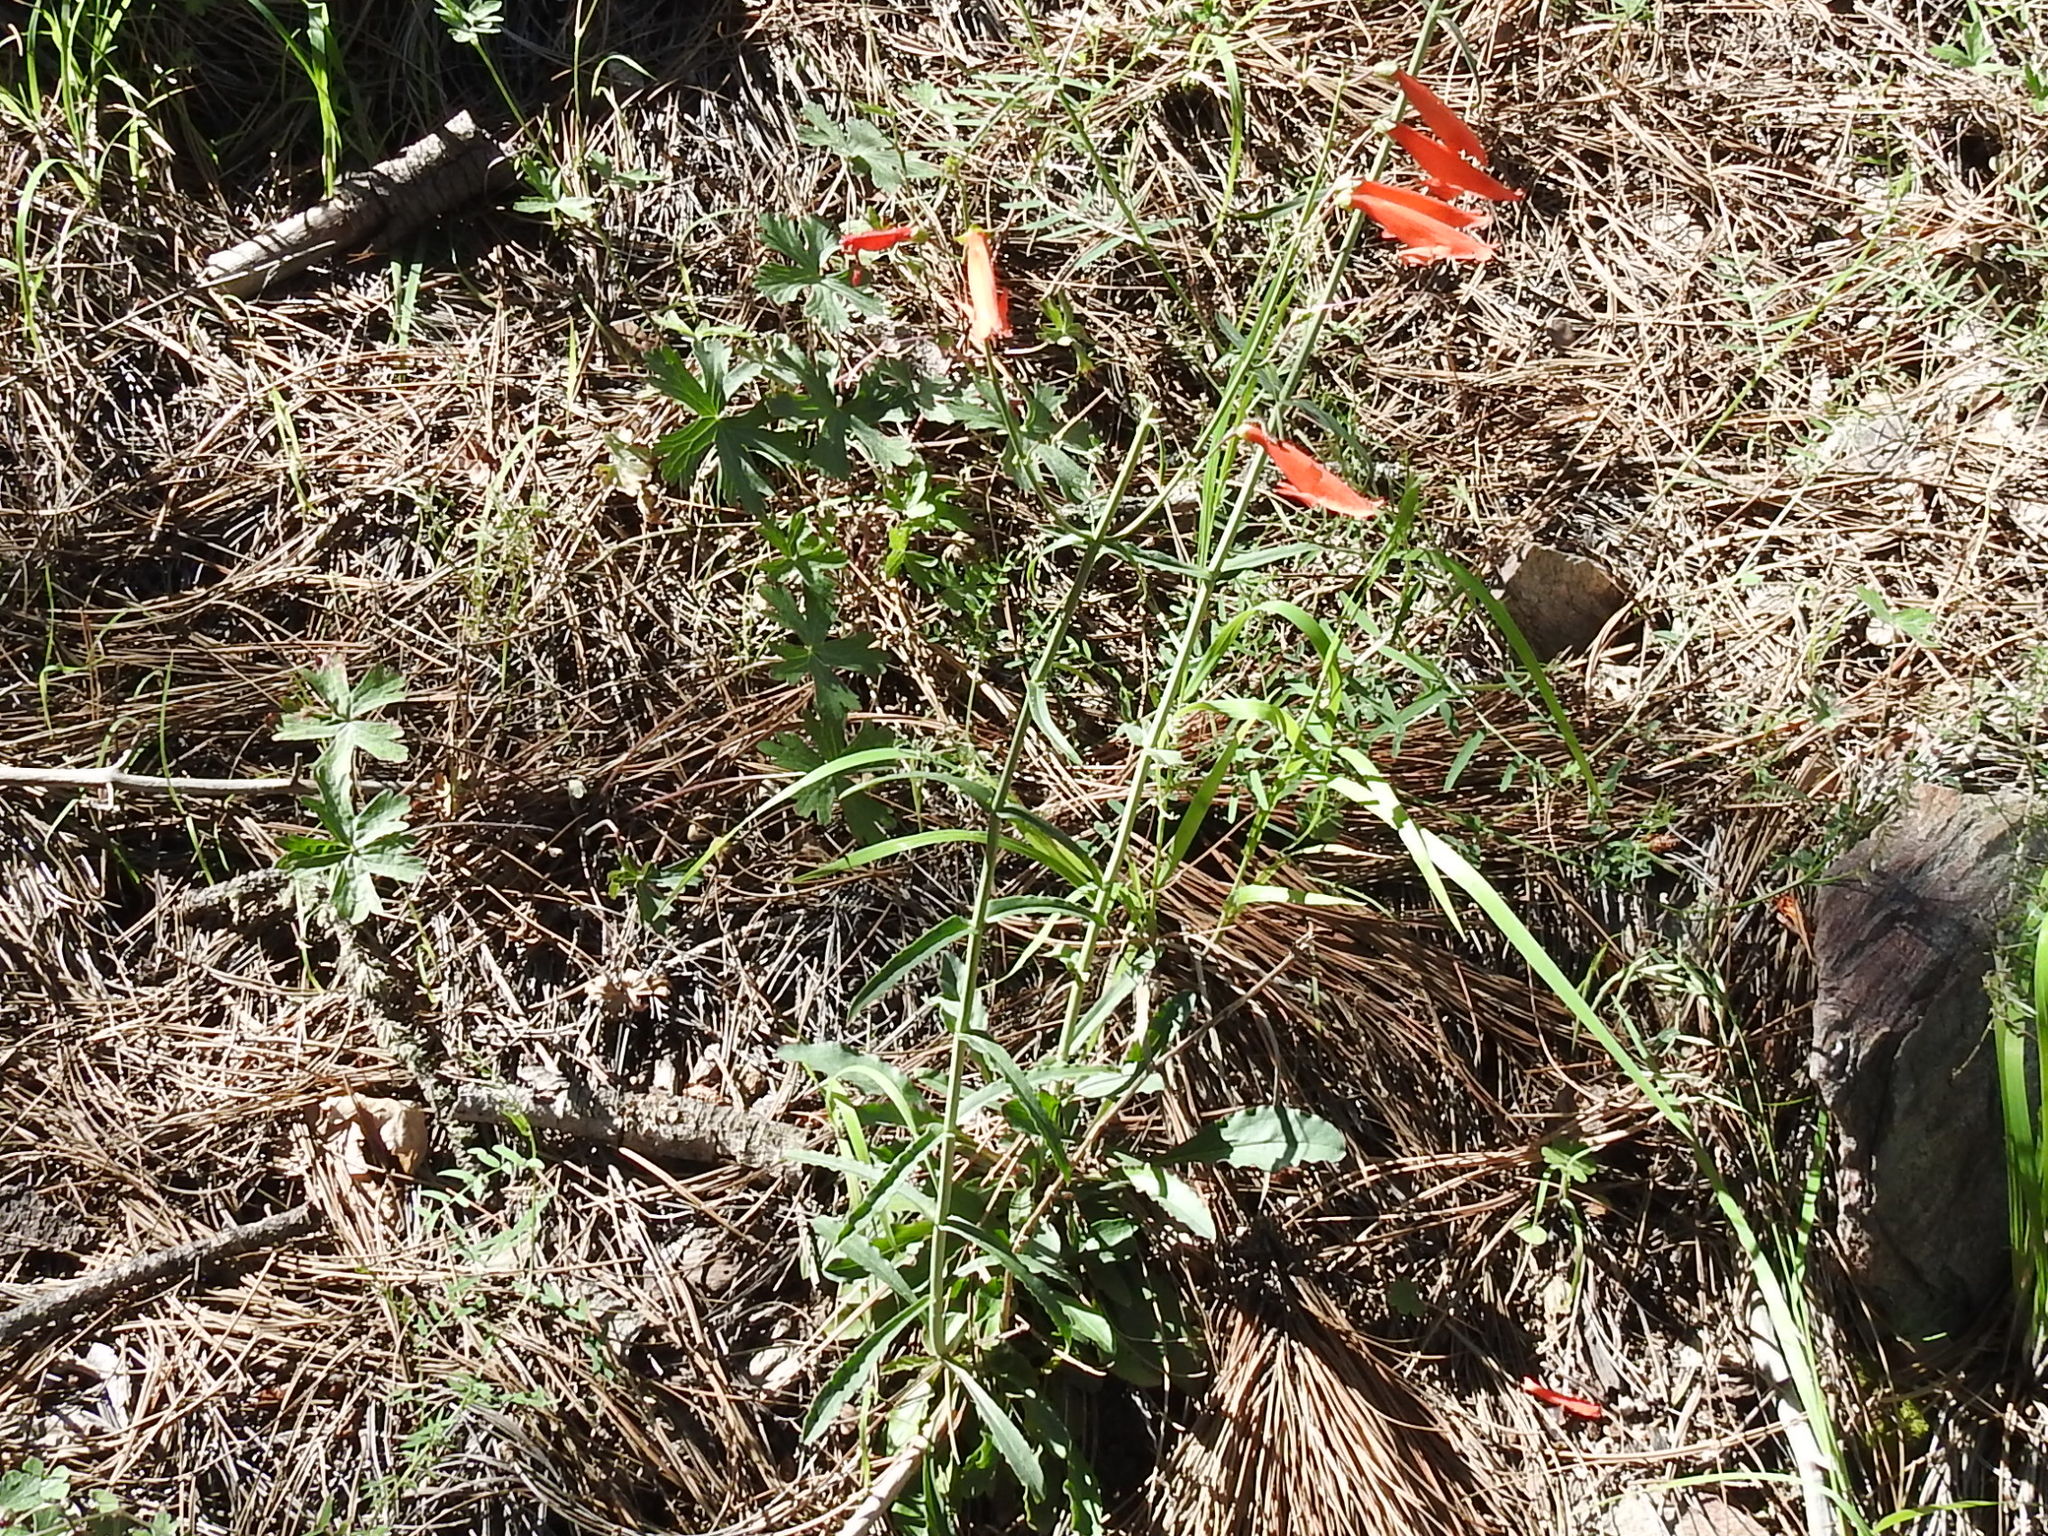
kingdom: Plantae
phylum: Tracheophyta
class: Magnoliopsida
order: Lamiales
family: Plantaginaceae
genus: Penstemon
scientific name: Penstemon barbatus
